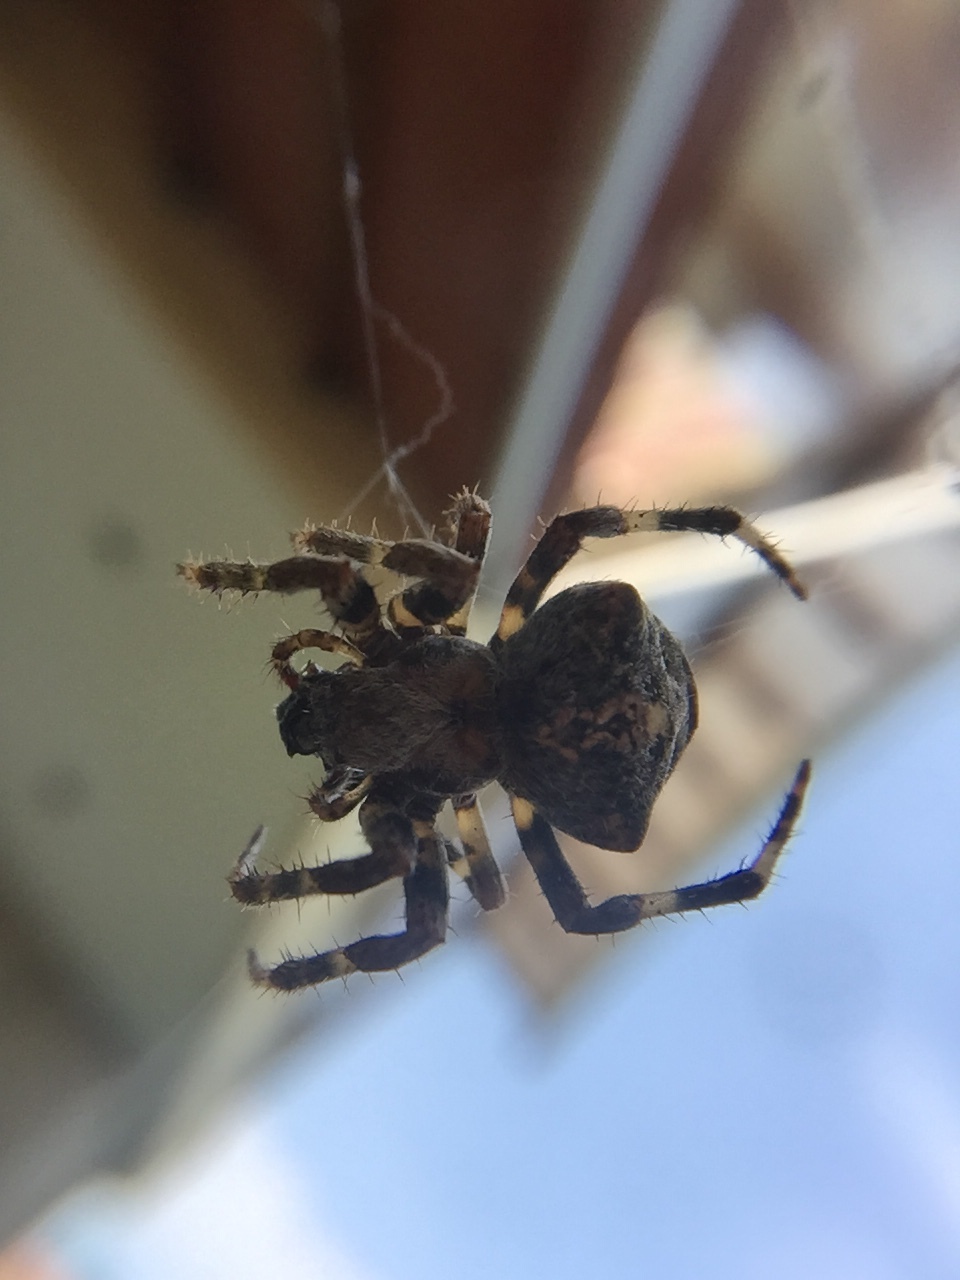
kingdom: Animalia
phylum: Arthropoda
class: Arachnida
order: Araneae
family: Araneidae
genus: Araneus
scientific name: Araneus angulatus
